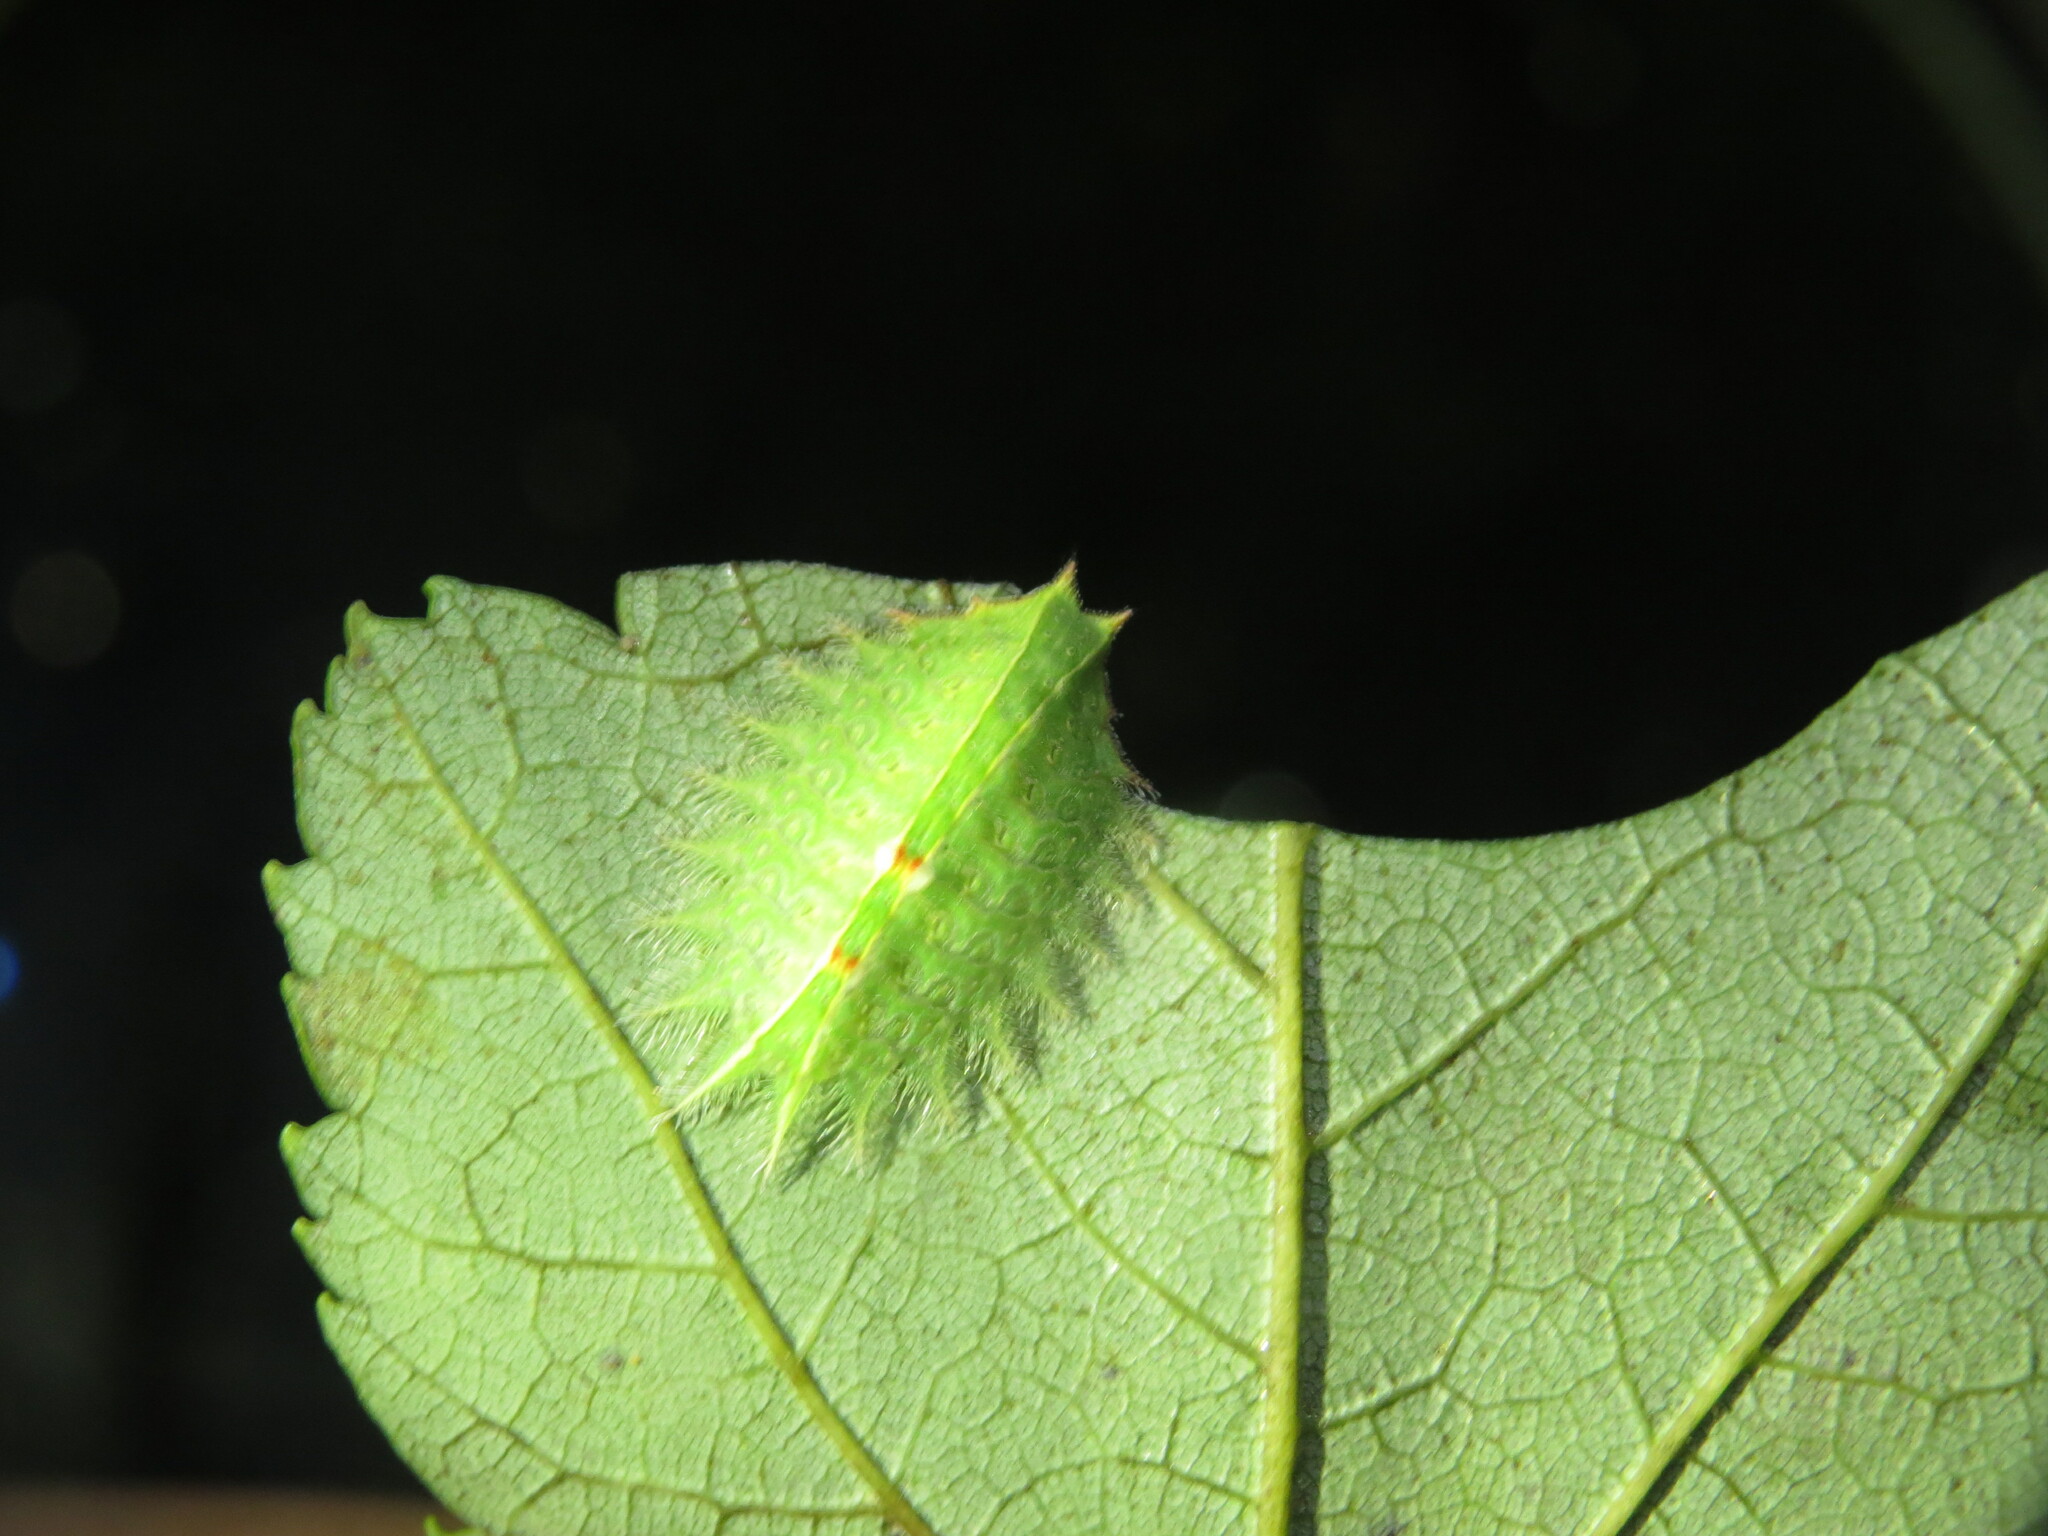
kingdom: Animalia
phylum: Arthropoda
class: Insecta
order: Lepidoptera
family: Limacodidae
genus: Isa
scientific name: Isa textula
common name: Crowned slug moth
